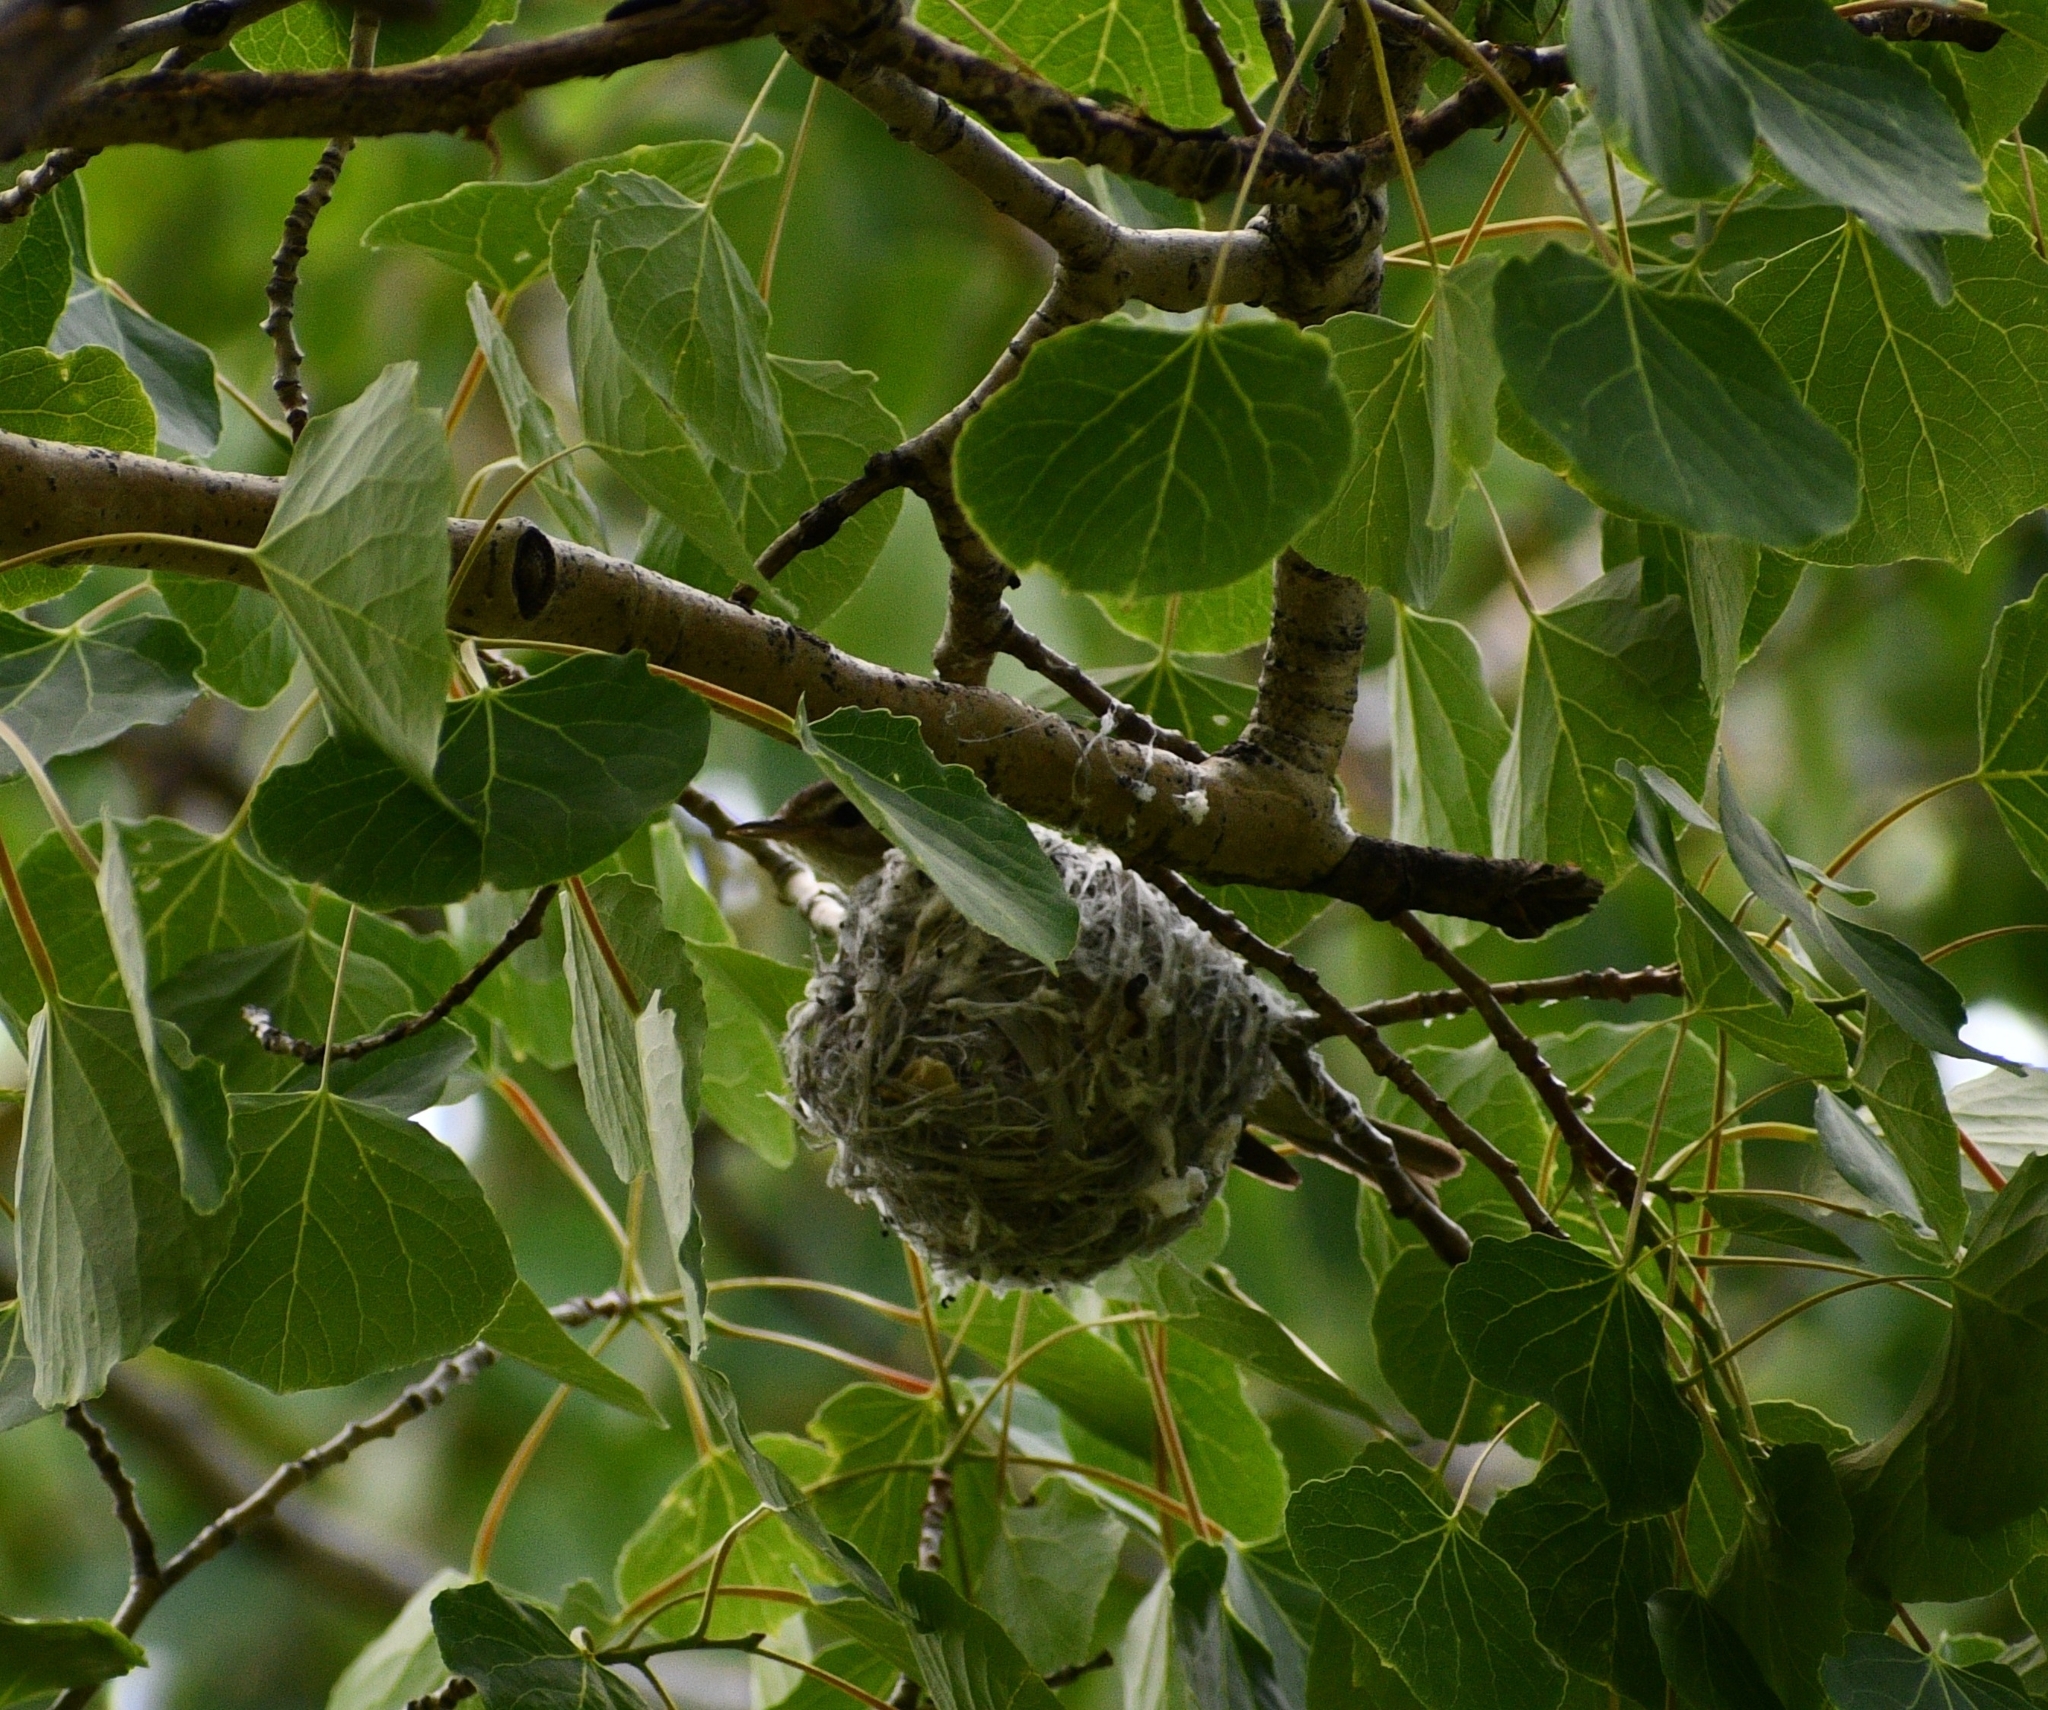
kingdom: Animalia
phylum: Chordata
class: Aves
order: Passeriformes
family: Vireonidae
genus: Vireo
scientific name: Vireo gilvus
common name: Warbling vireo
